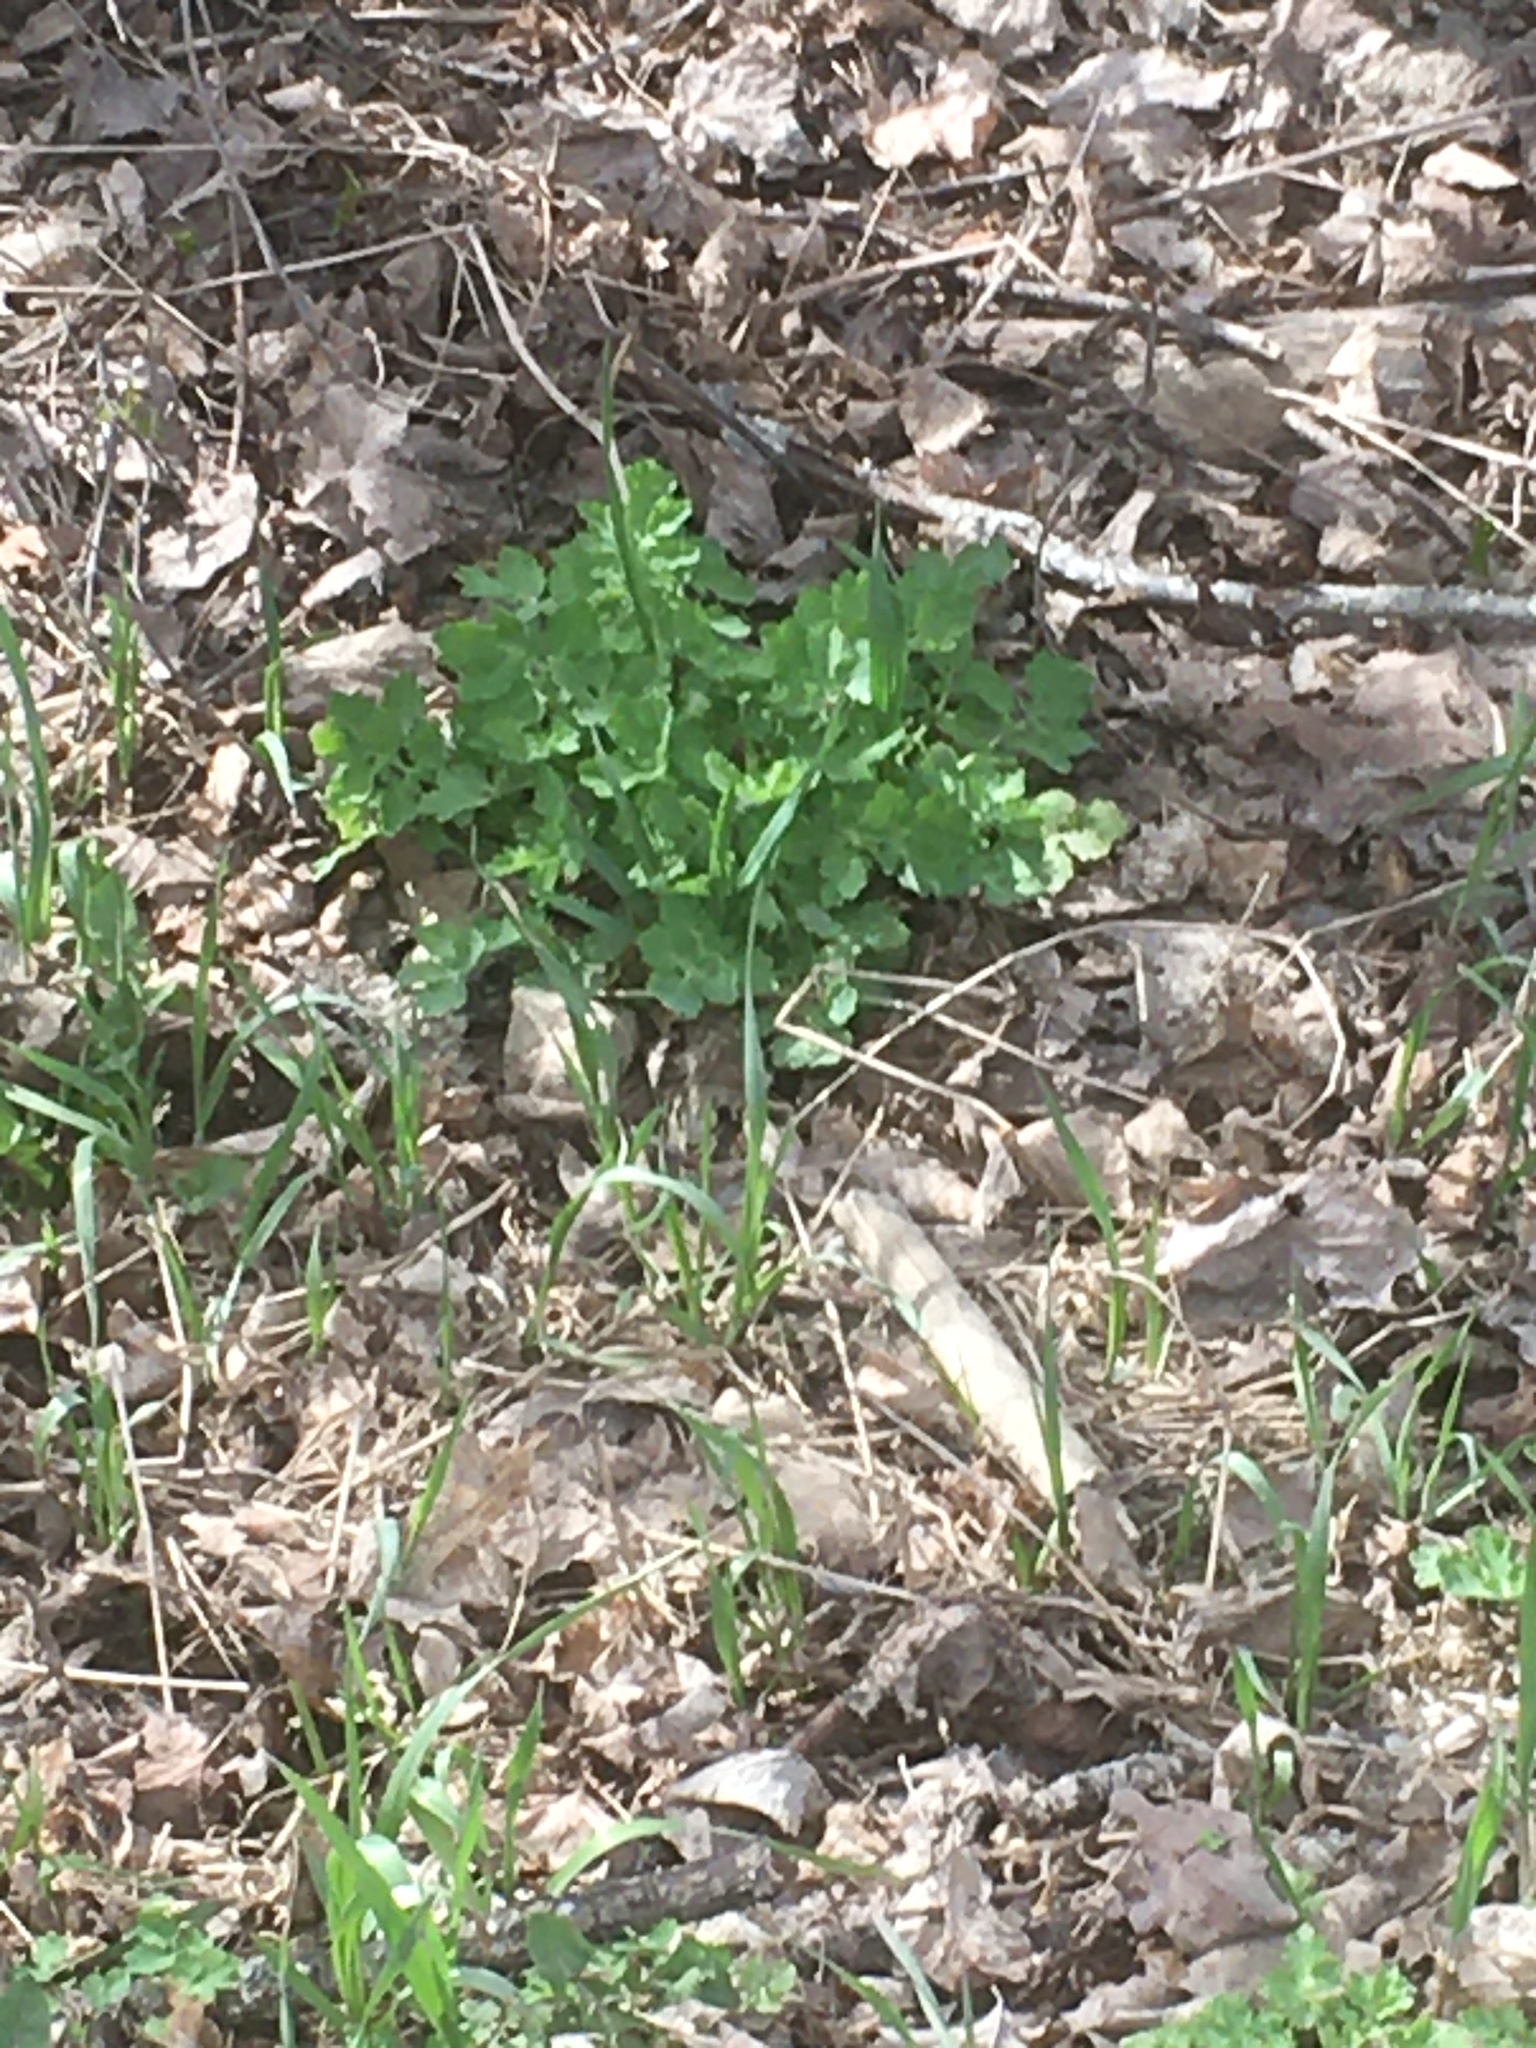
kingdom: Plantae
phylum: Tracheophyta
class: Magnoliopsida
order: Ranunculales
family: Papaveraceae
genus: Chelidonium
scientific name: Chelidonium majus
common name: Greater celandine
